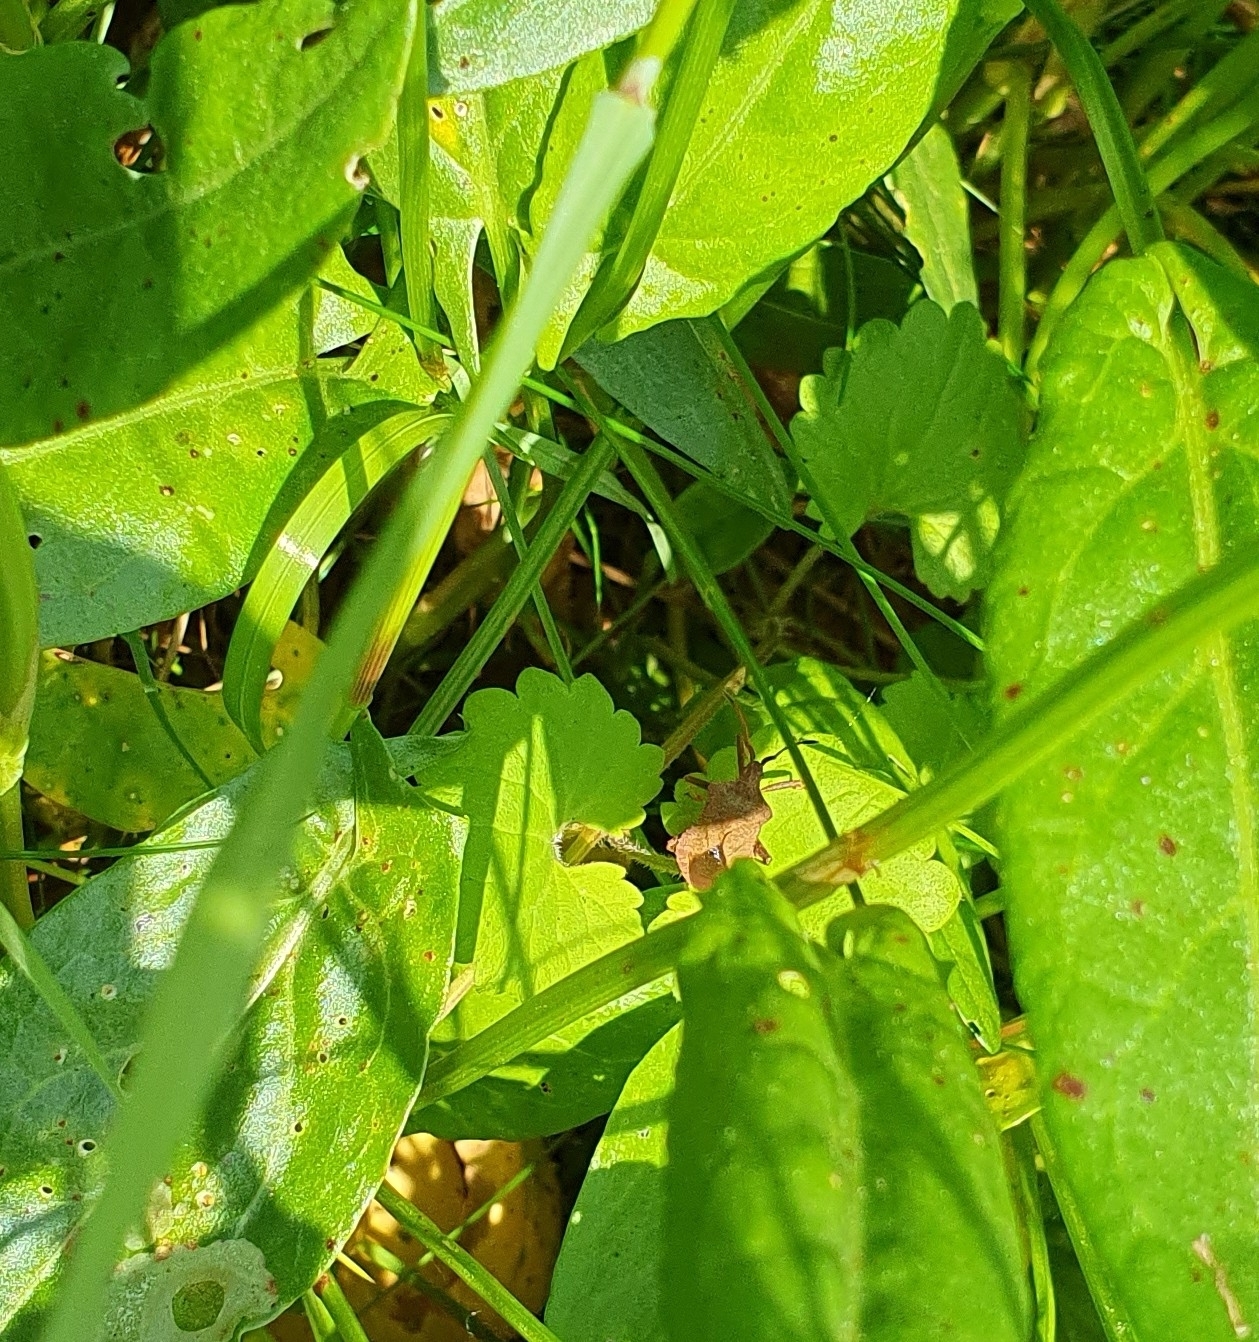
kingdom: Animalia
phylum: Arthropoda
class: Insecta
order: Hemiptera
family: Coreidae
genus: Coreus
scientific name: Coreus marginatus
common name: Dock bug
